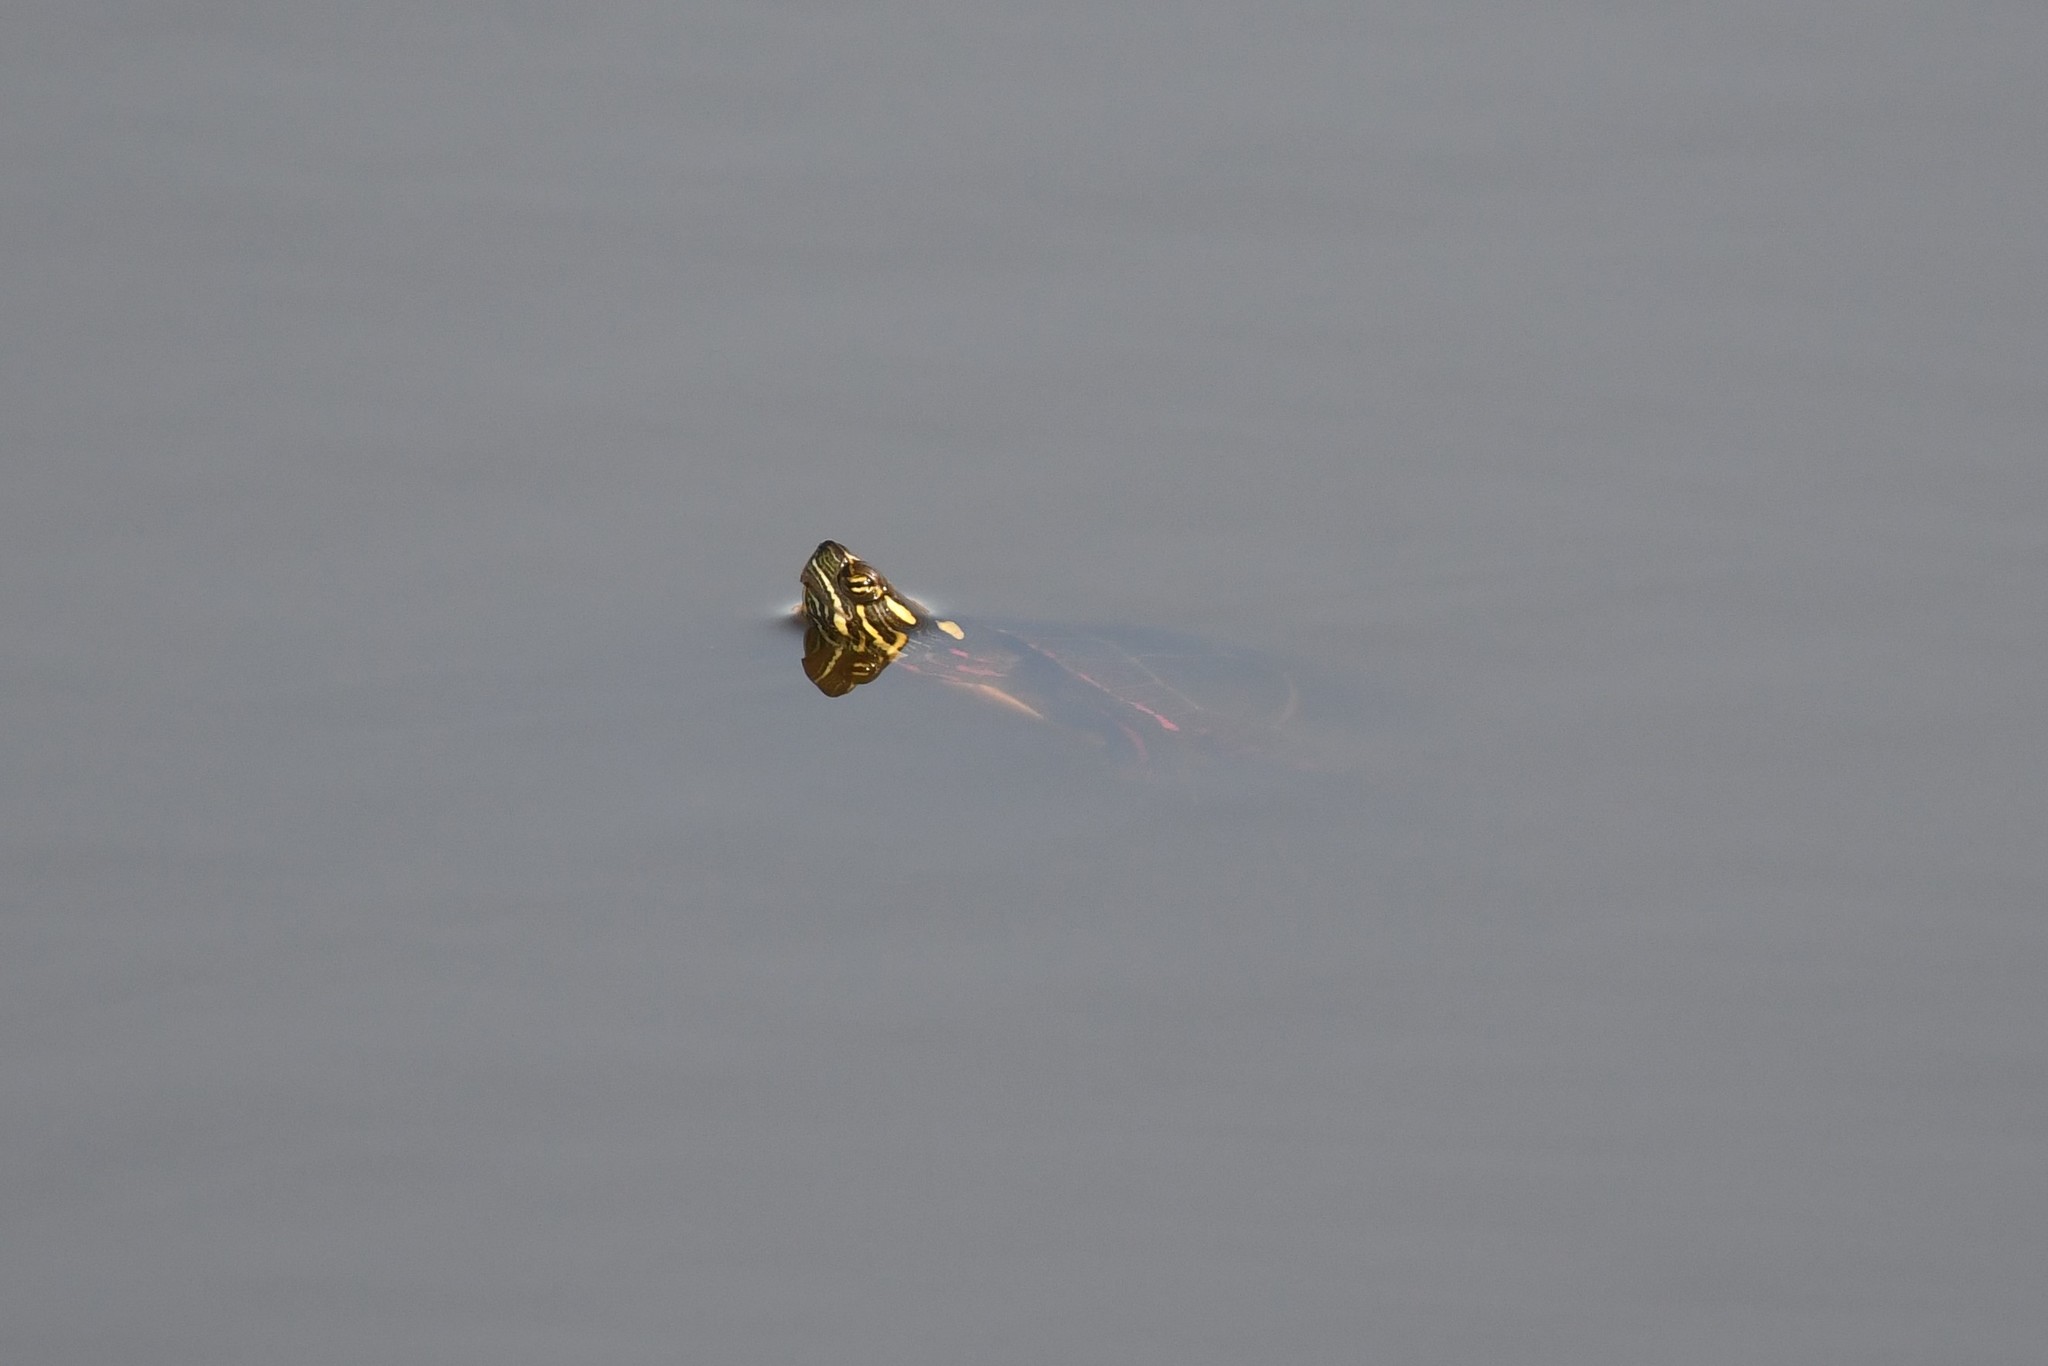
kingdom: Animalia
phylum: Chordata
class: Testudines
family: Emydidae
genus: Chrysemys
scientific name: Chrysemys picta
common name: Painted turtle
